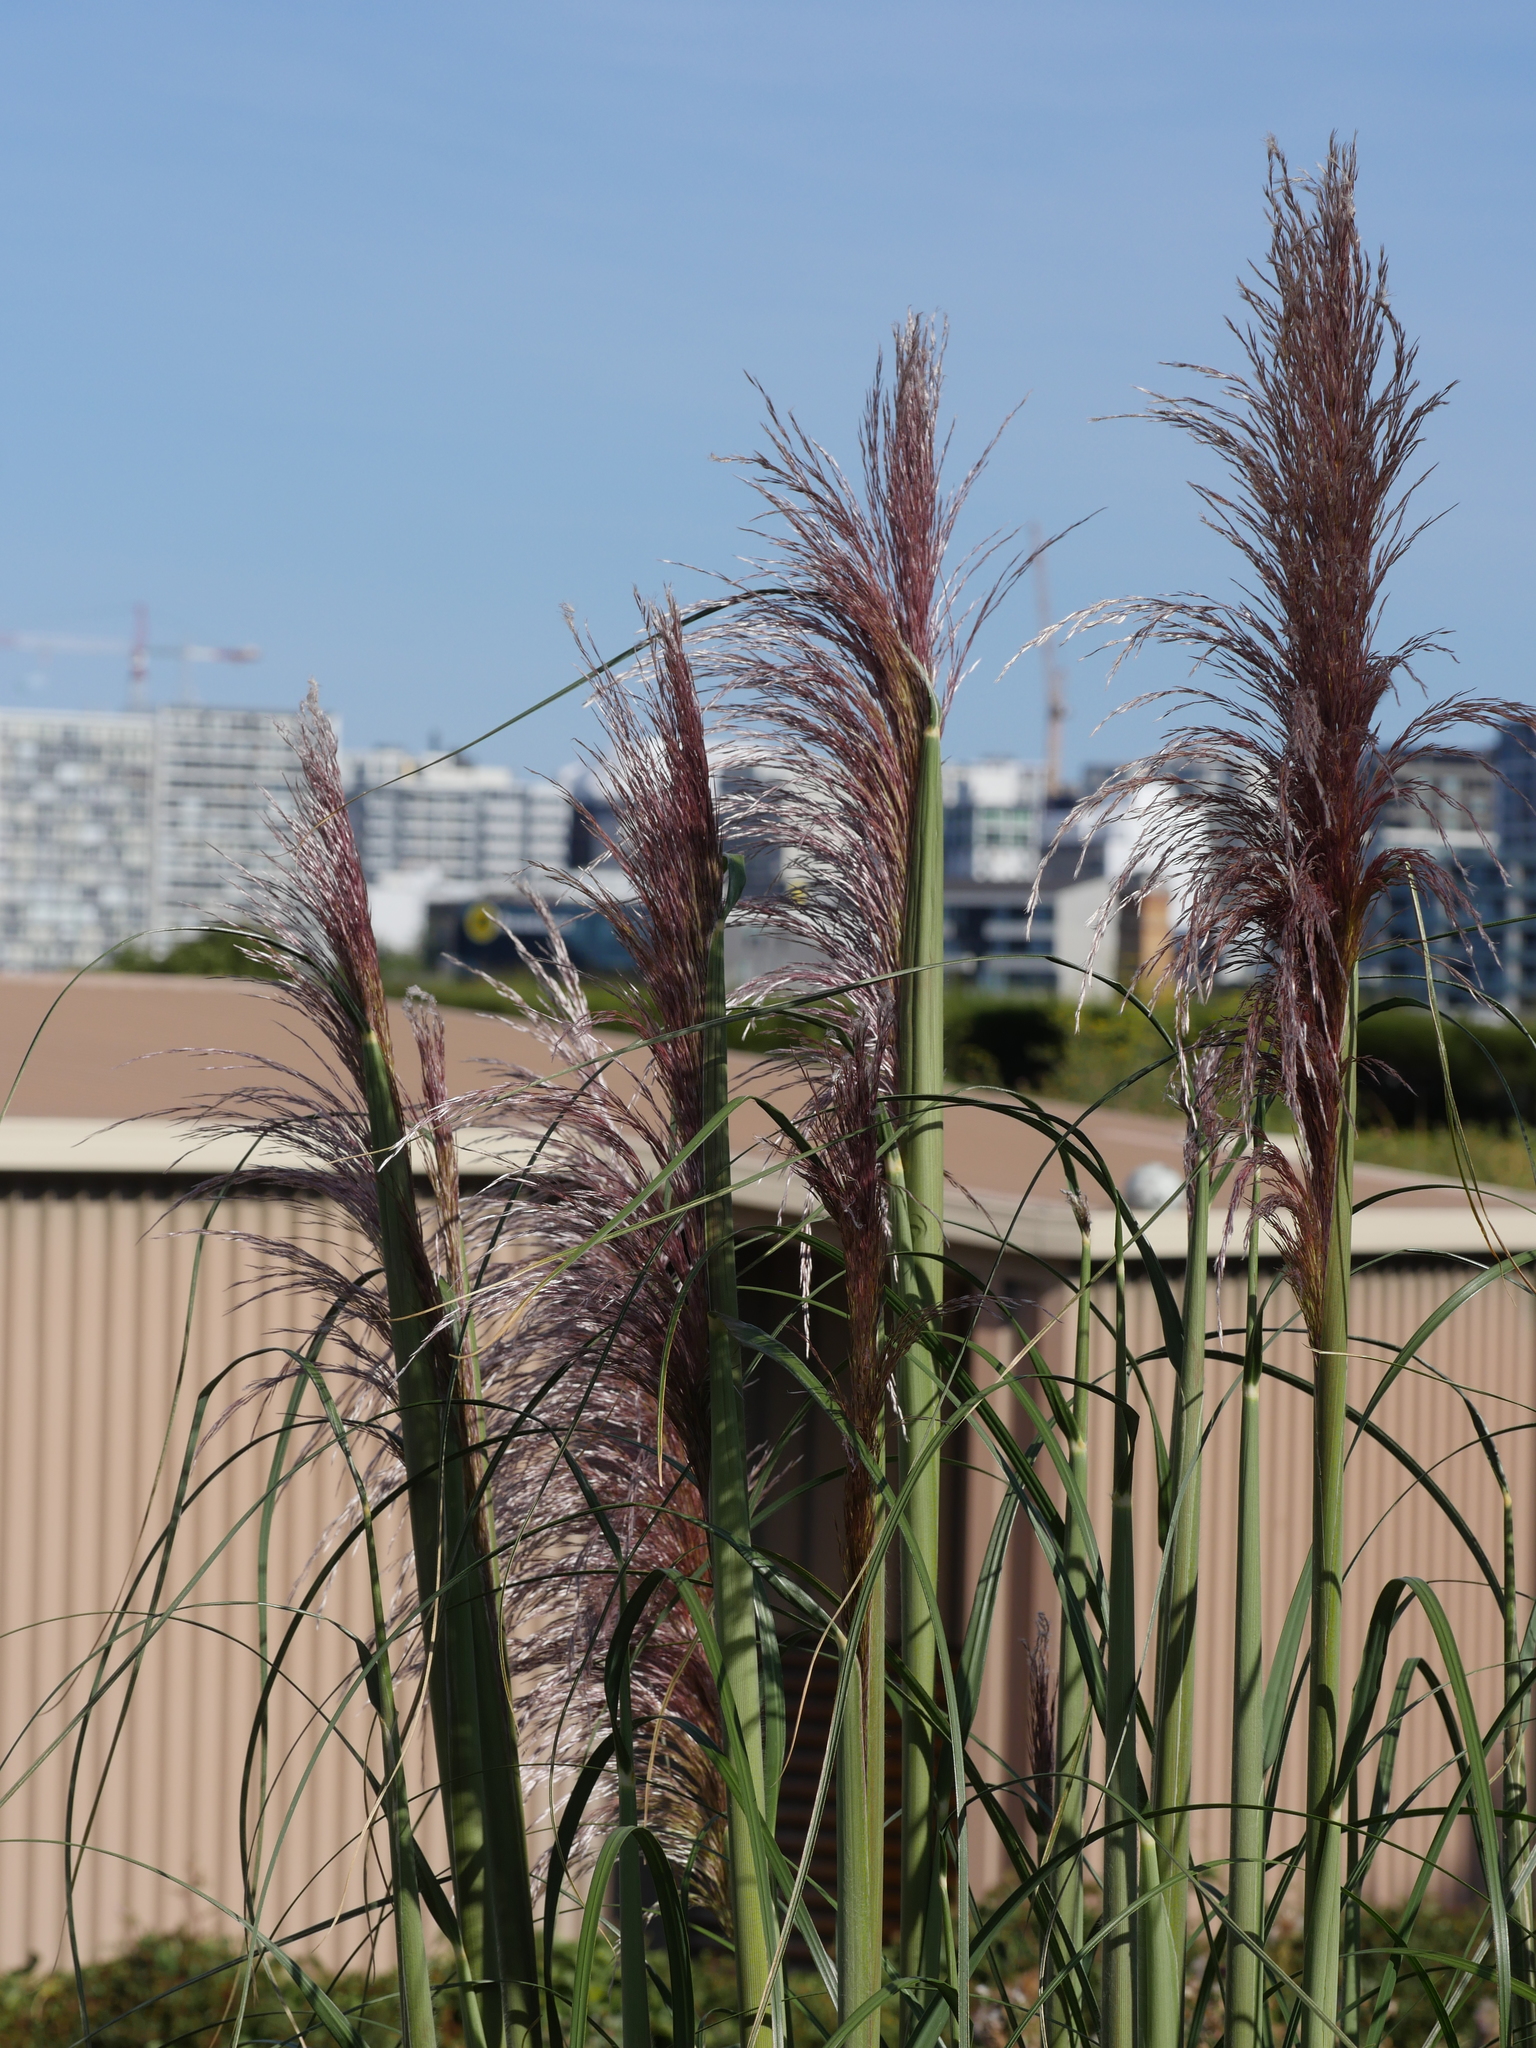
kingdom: Plantae
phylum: Tracheophyta
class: Liliopsida
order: Poales
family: Poaceae
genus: Cortaderia
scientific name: Cortaderia jubata
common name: Purple pampas grass
